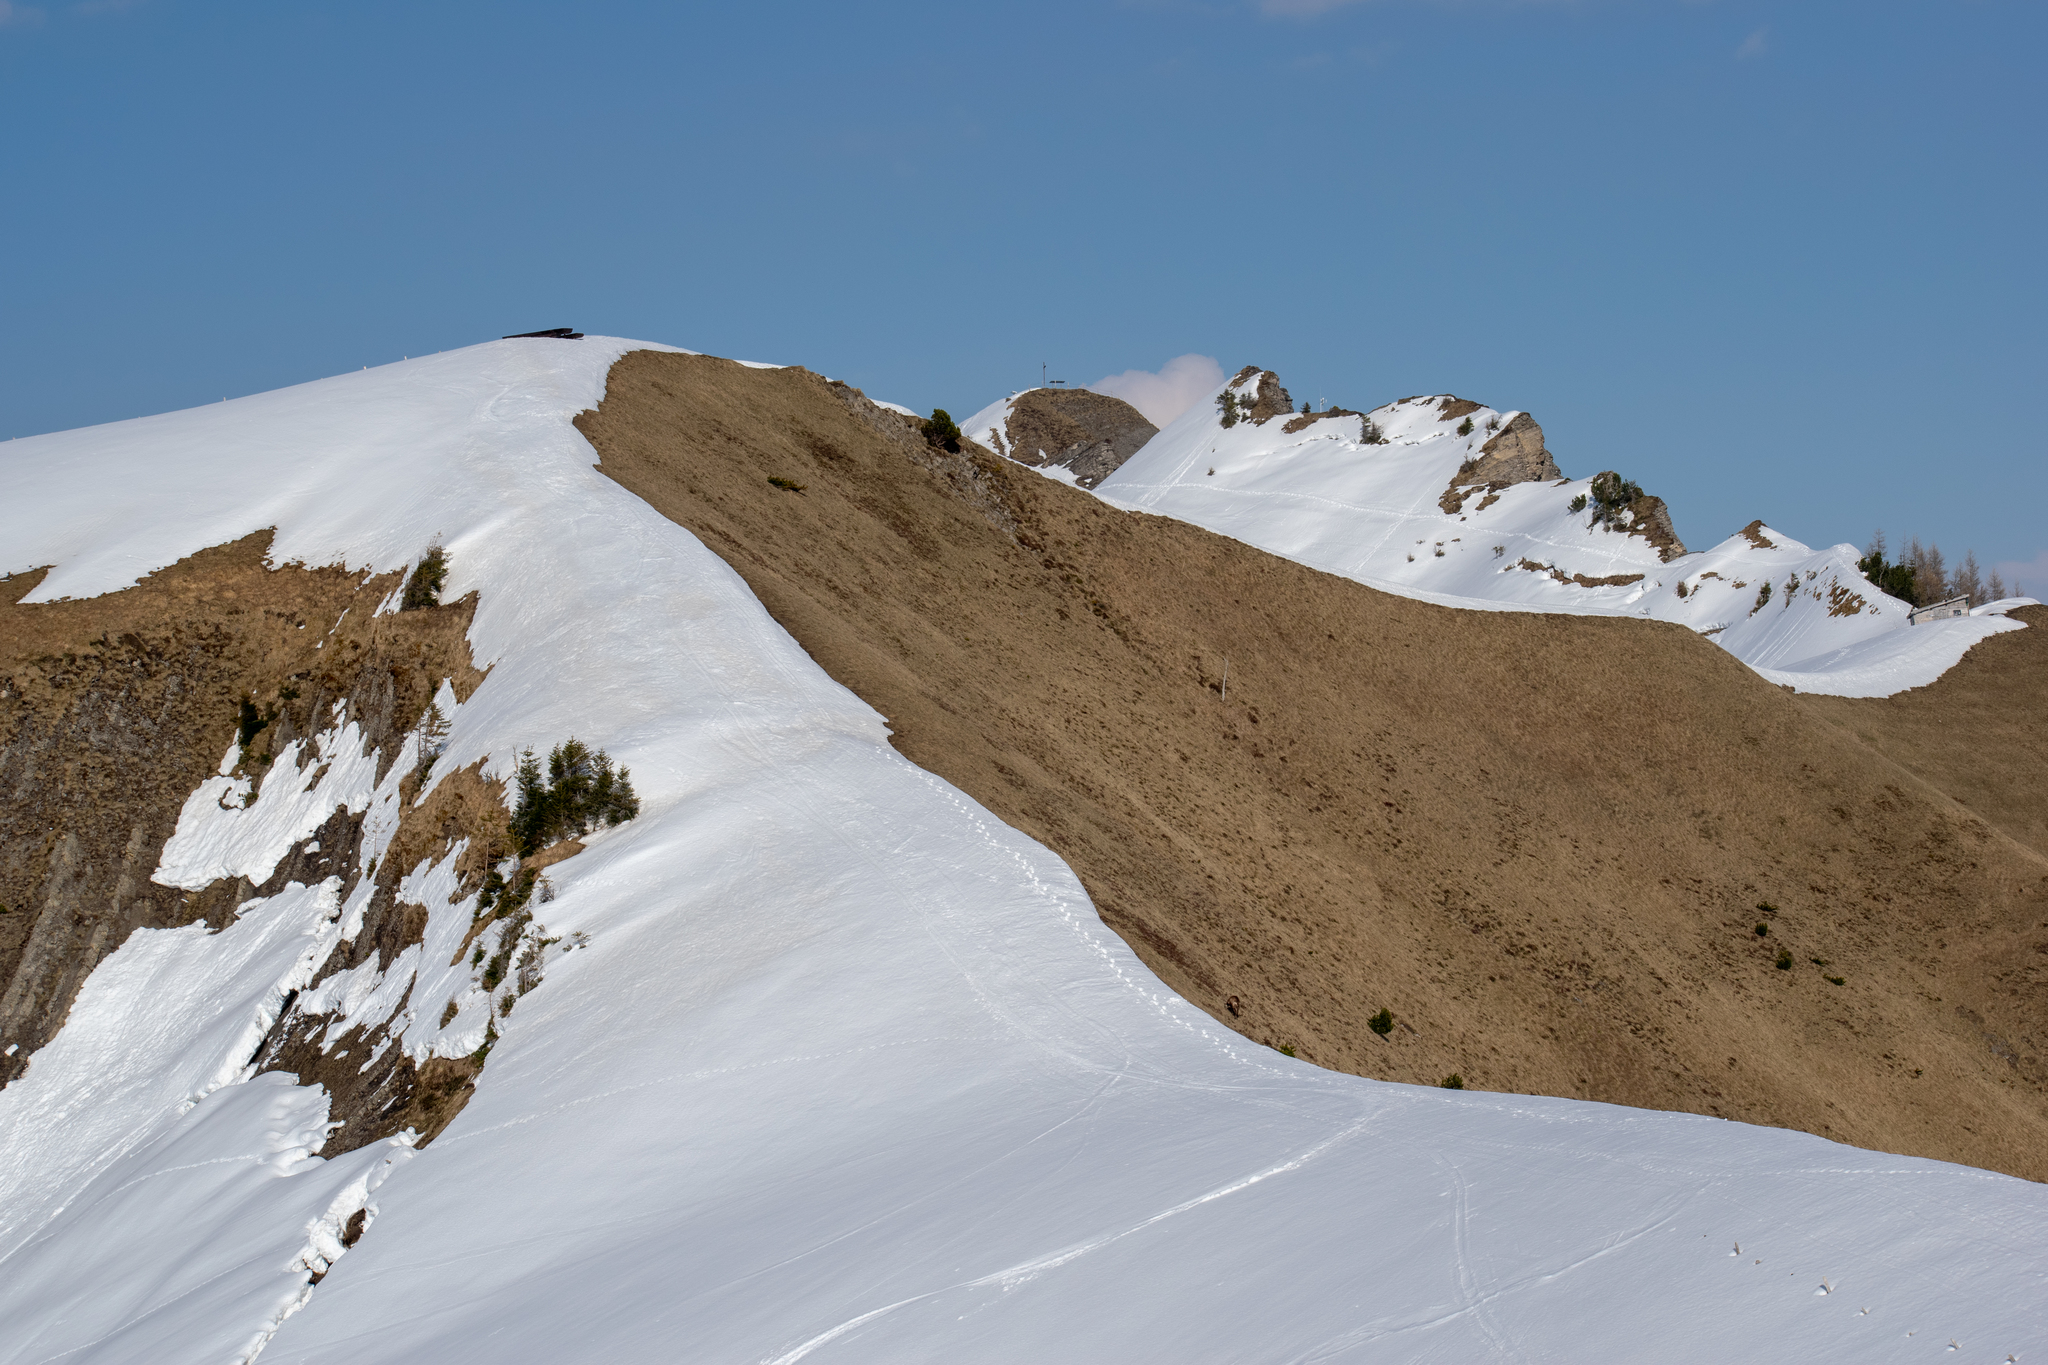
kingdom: Animalia
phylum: Chordata
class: Mammalia
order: Artiodactyla
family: Bovidae
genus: Rupicapra
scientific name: Rupicapra rupicapra
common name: Chamois
